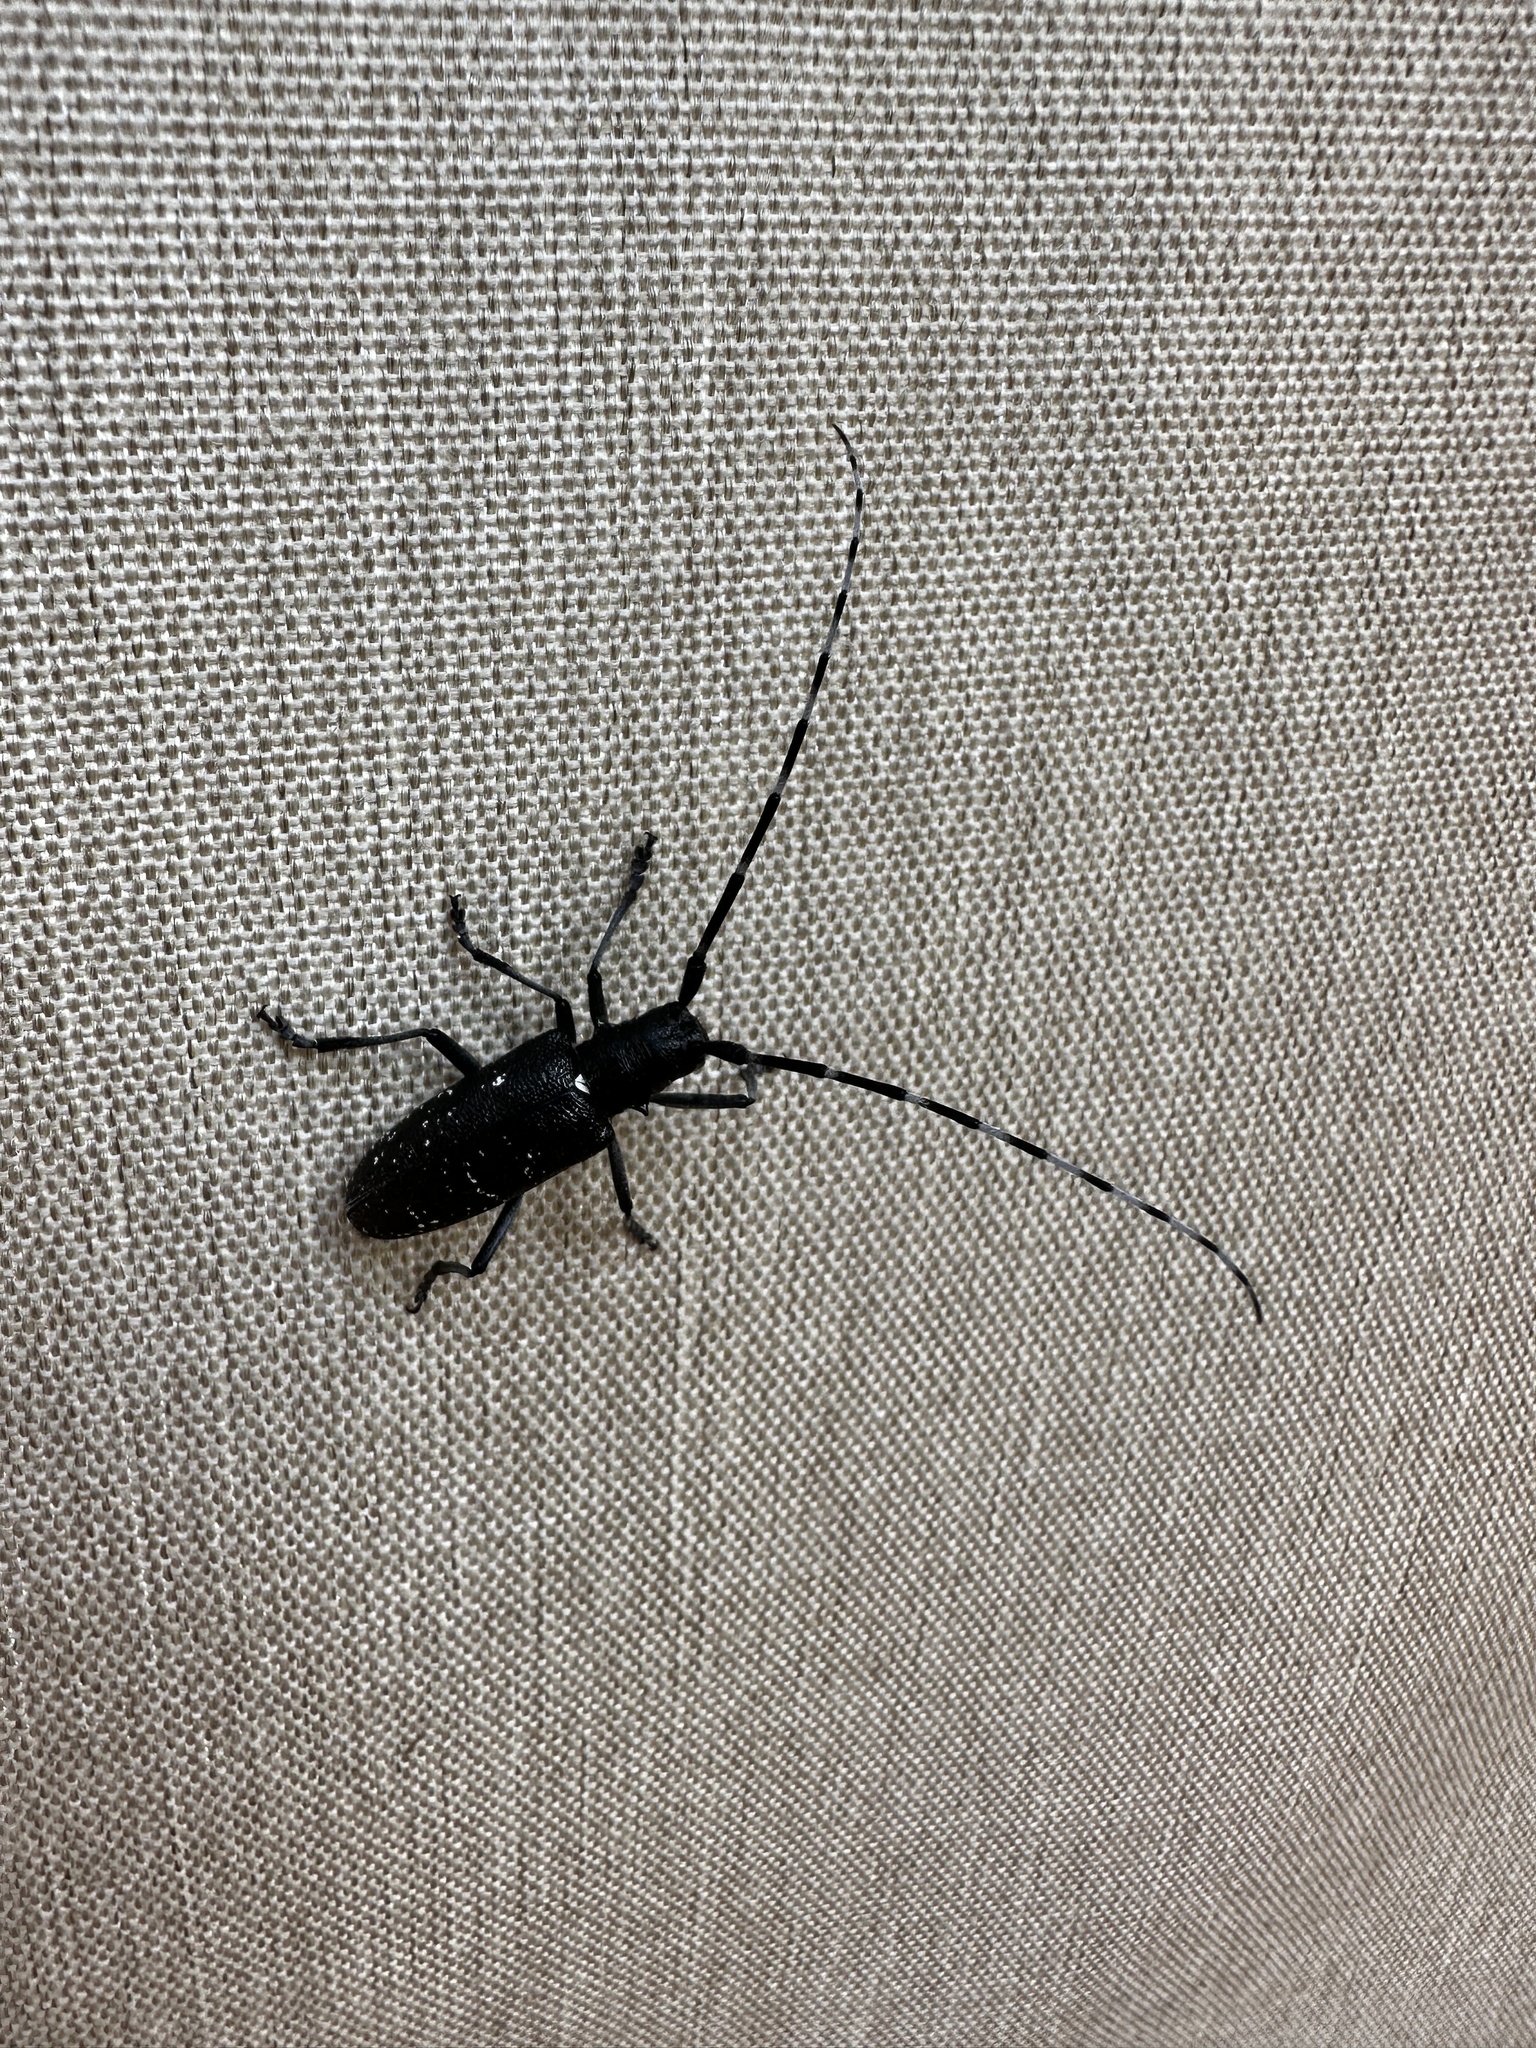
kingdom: Animalia
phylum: Arthropoda
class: Insecta
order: Coleoptera
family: Cerambycidae
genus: Monochamus
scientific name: Monochamus scutellatus
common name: White-spotted sawyer beetle
